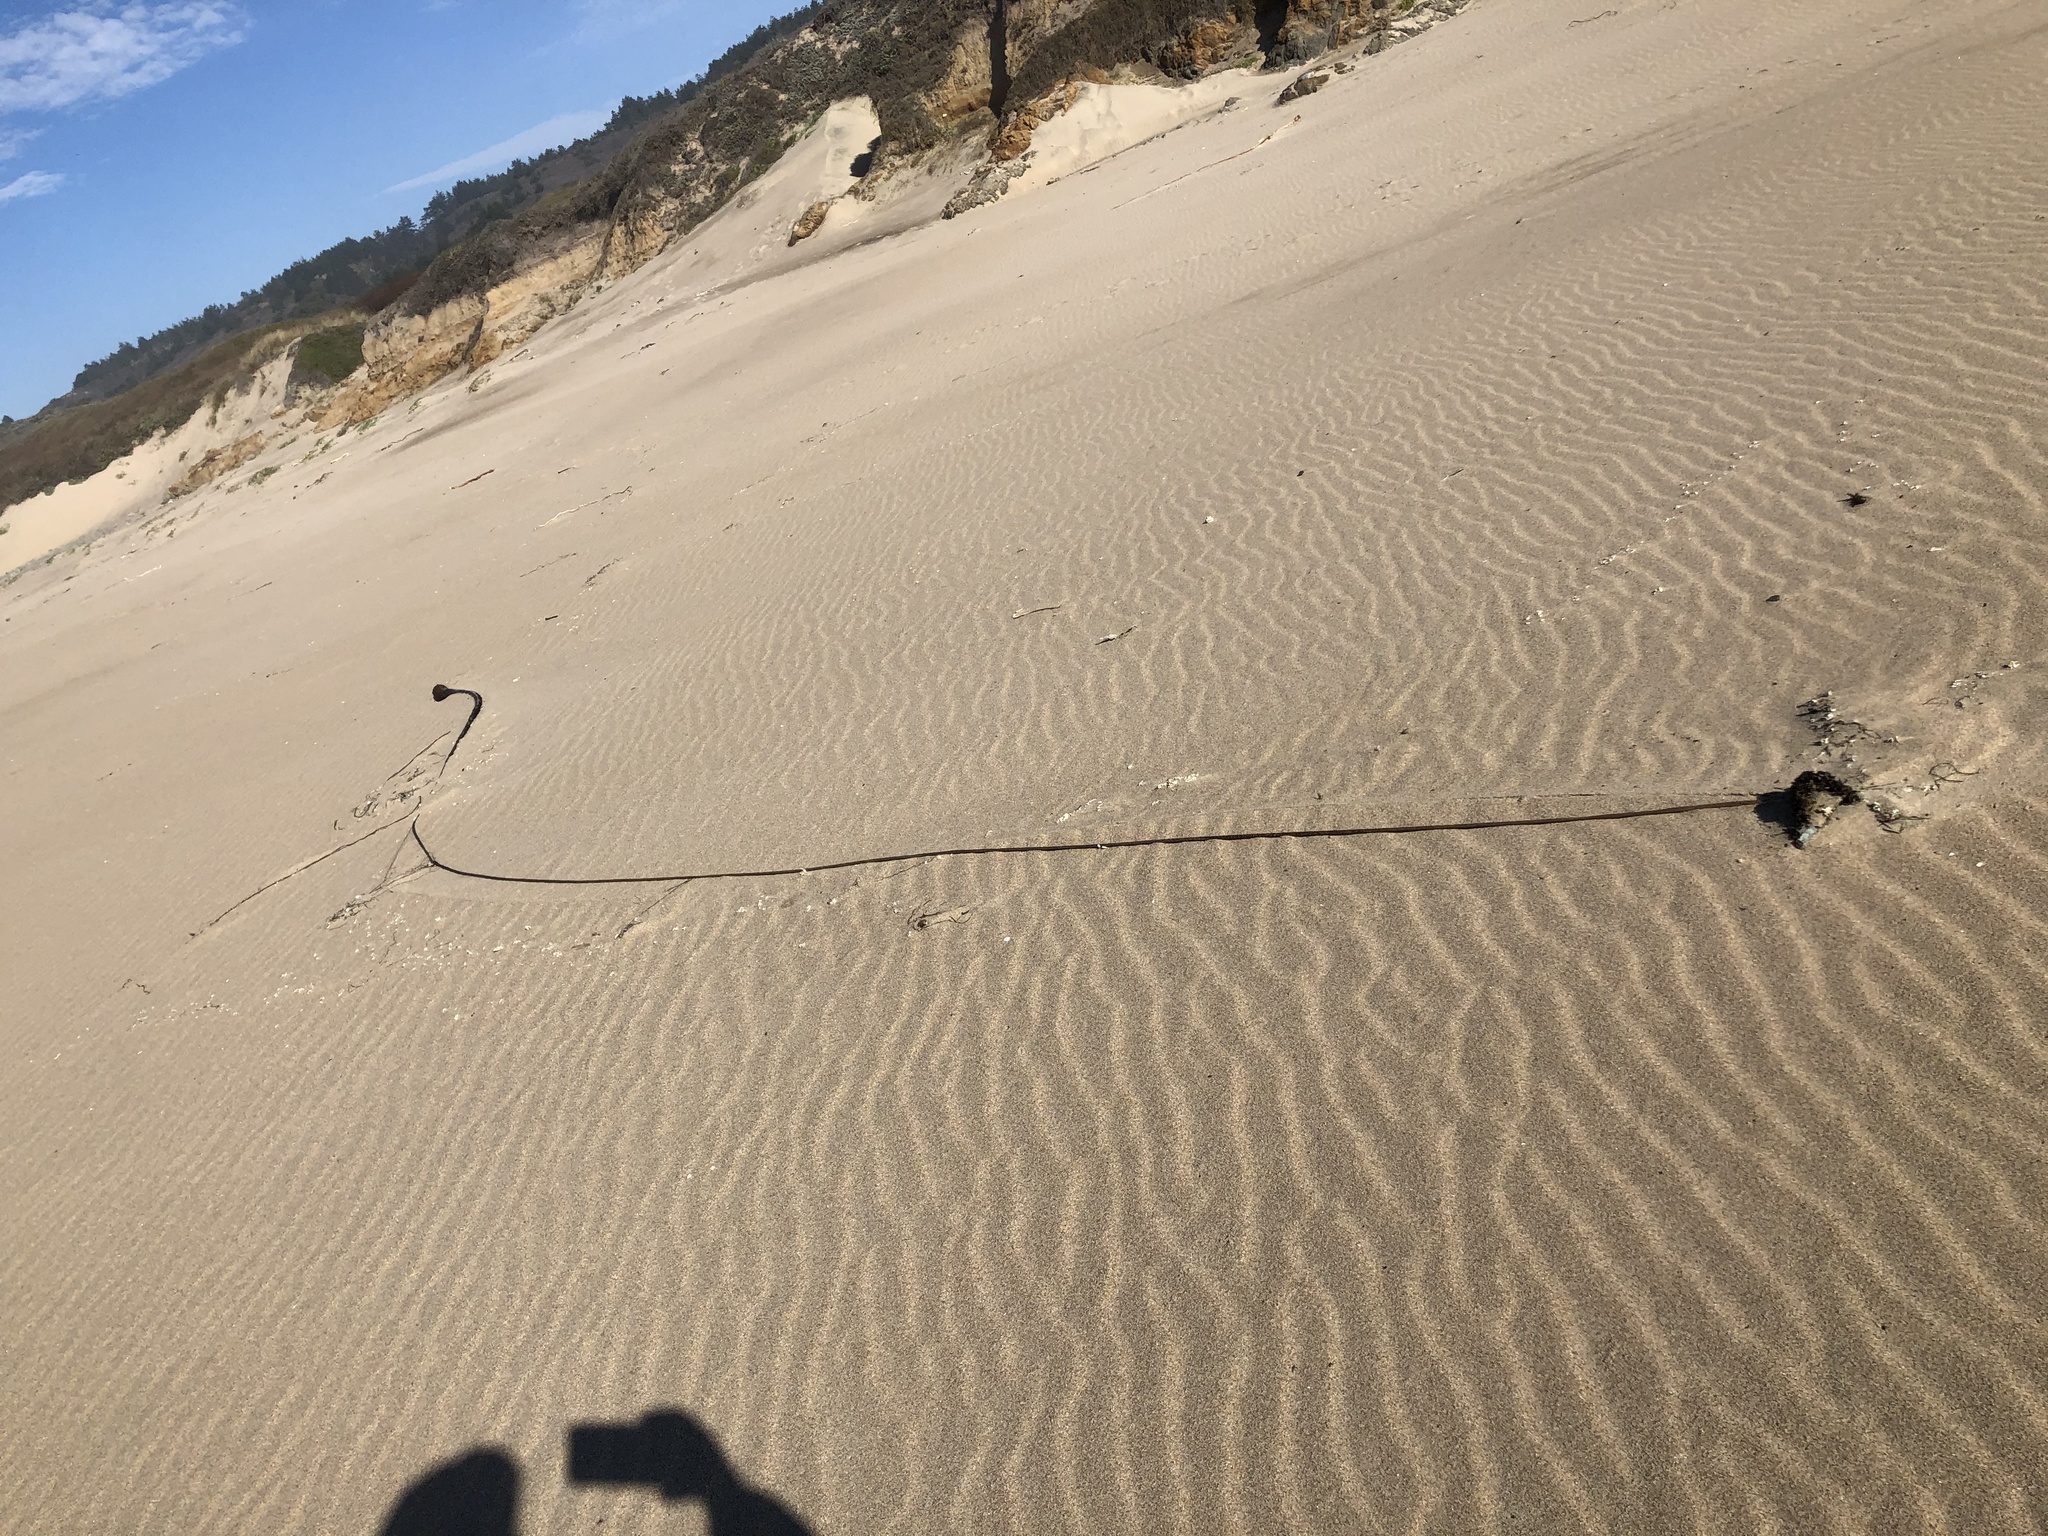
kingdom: Chromista
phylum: Ochrophyta
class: Phaeophyceae
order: Laminariales
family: Laminariaceae
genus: Nereocystis
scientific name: Nereocystis luetkeana
